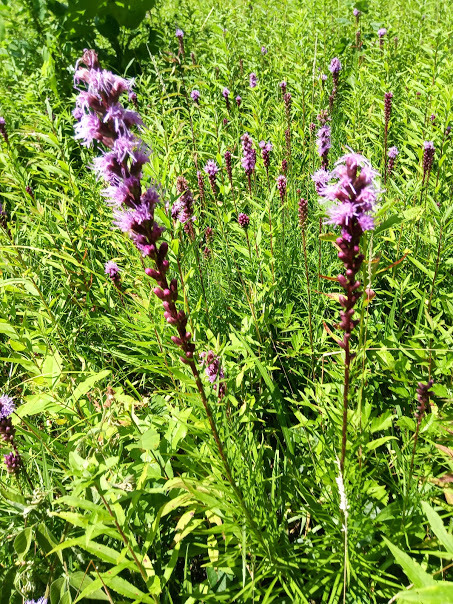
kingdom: Plantae
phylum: Tracheophyta
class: Magnoliopsida
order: Asterales
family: Asteraceae
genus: Liatris
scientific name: Liatris spicata
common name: Florist gayfeather
